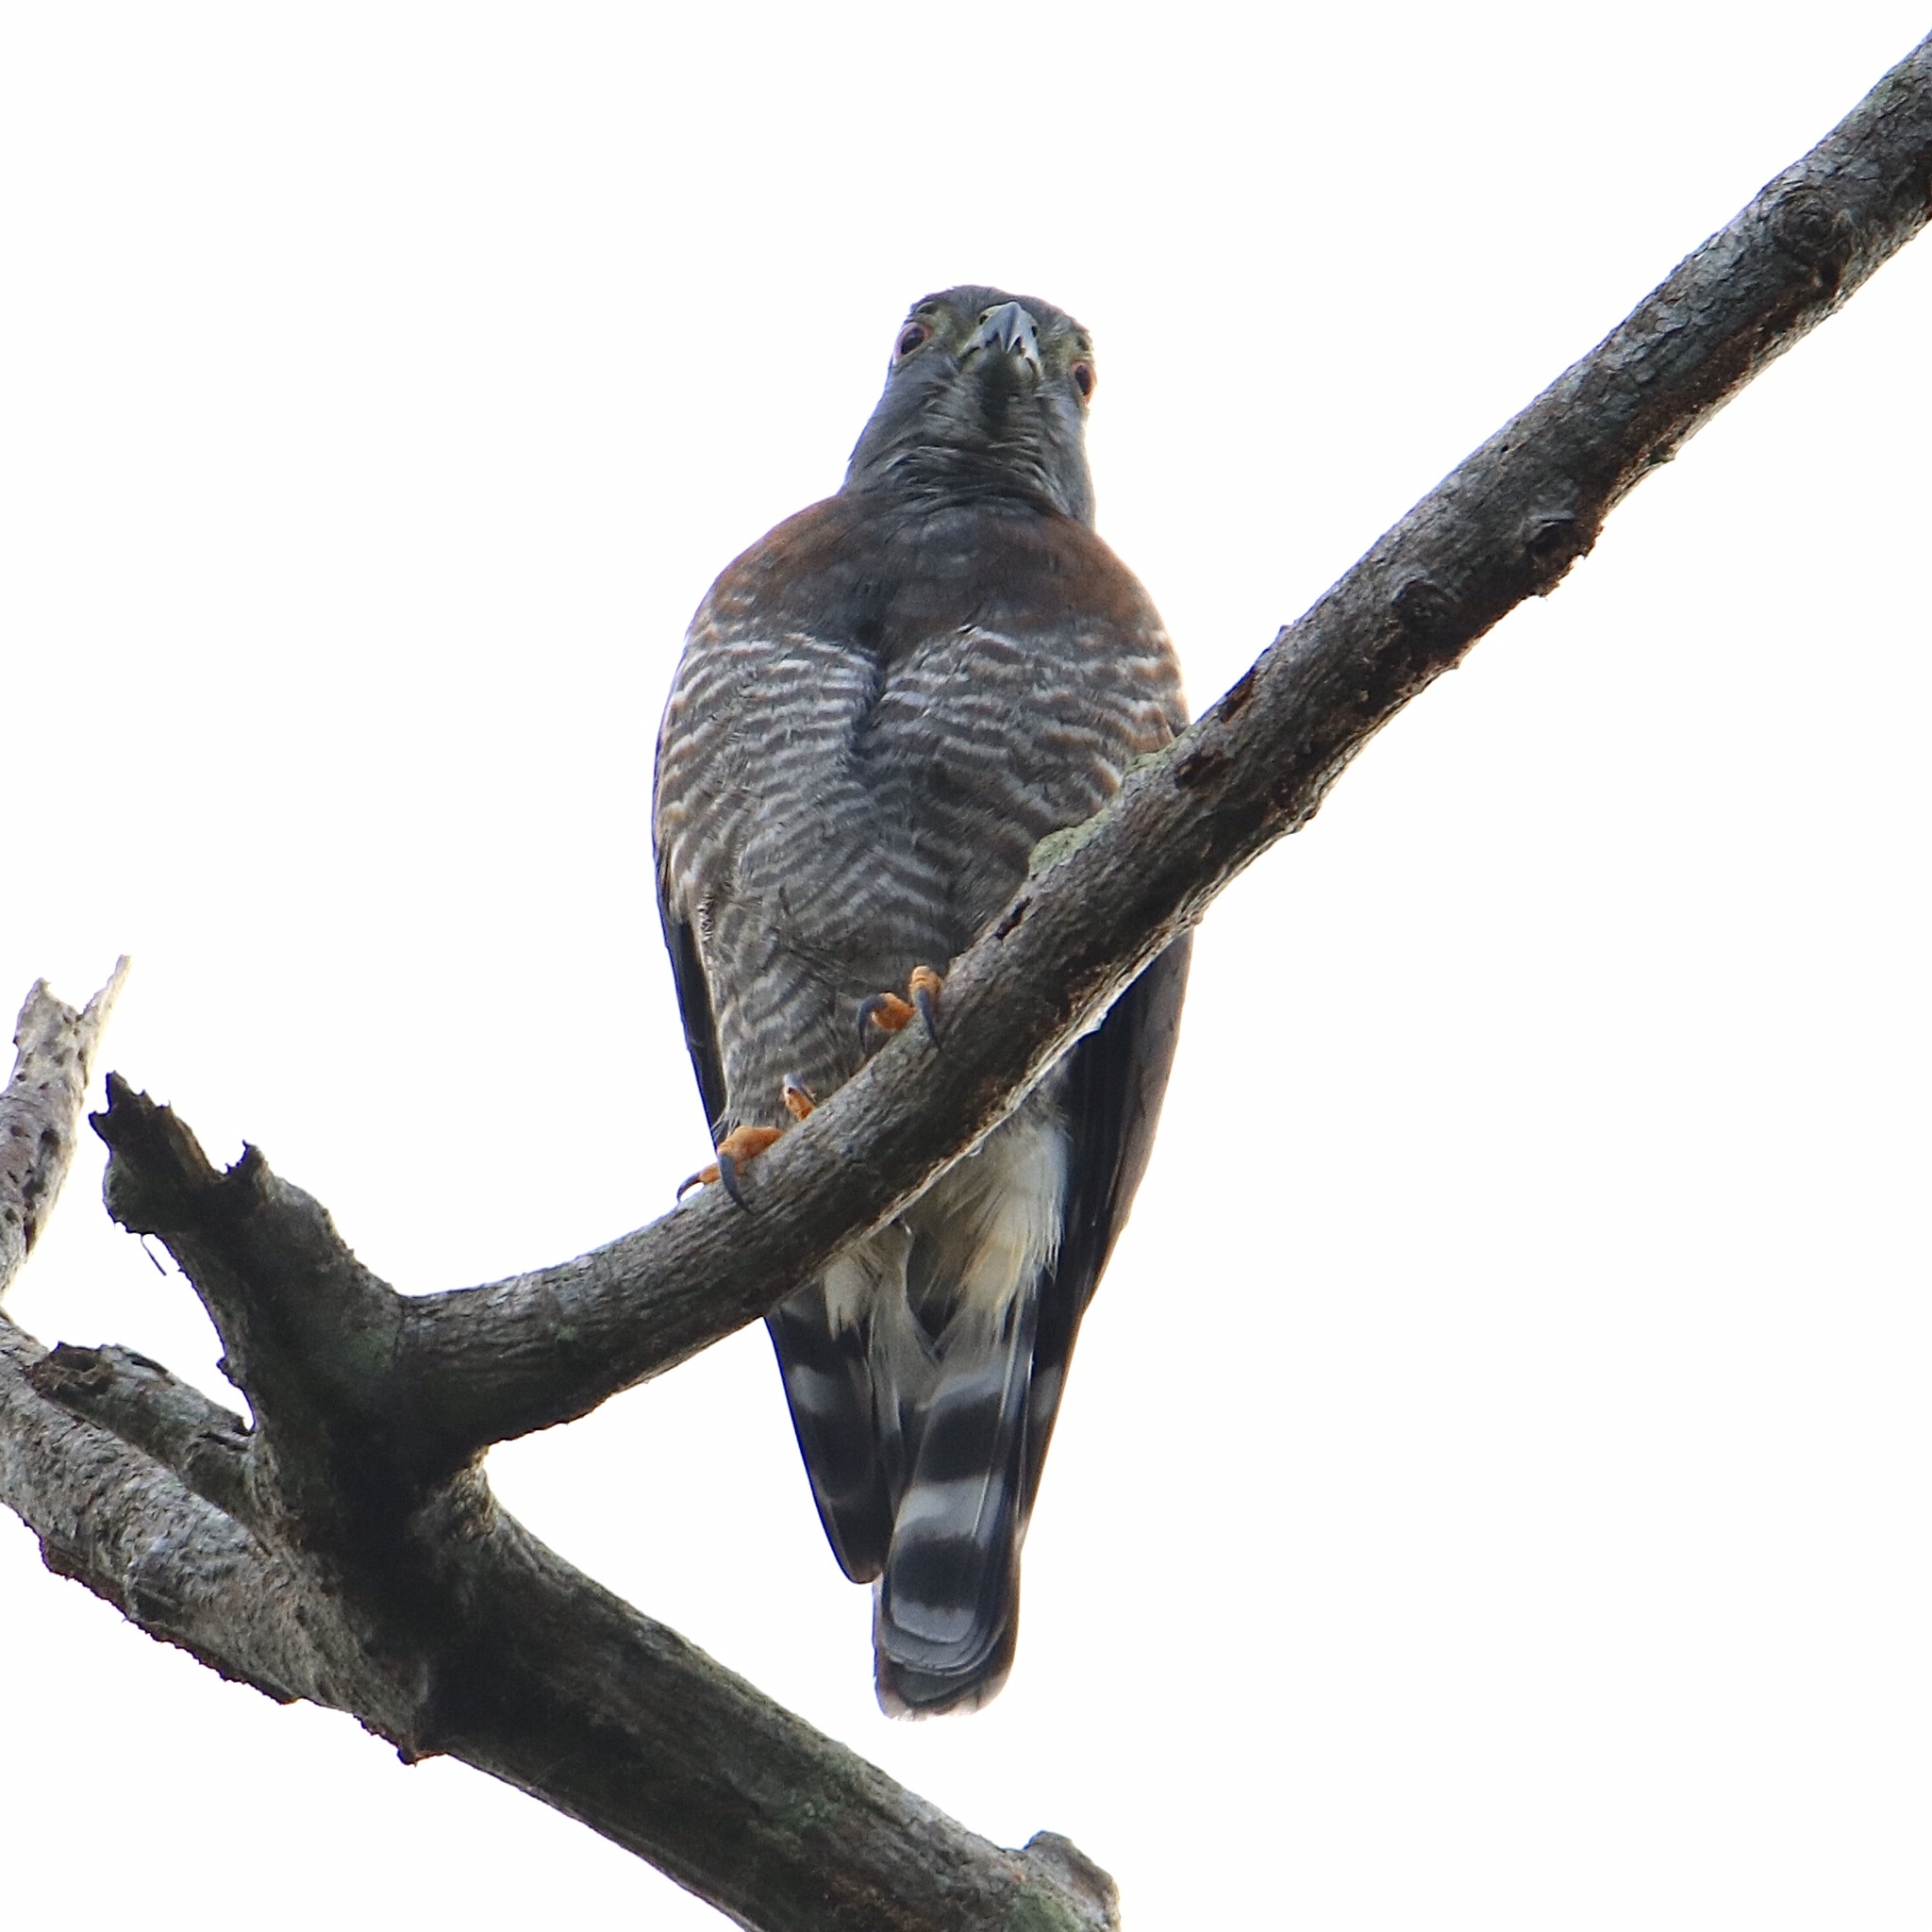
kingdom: Animalia
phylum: Chordata
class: Aves
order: Accipitriformes
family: Accipitridae
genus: Harpagus
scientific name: Harpagus bidentatus
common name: Double-toothed kite
